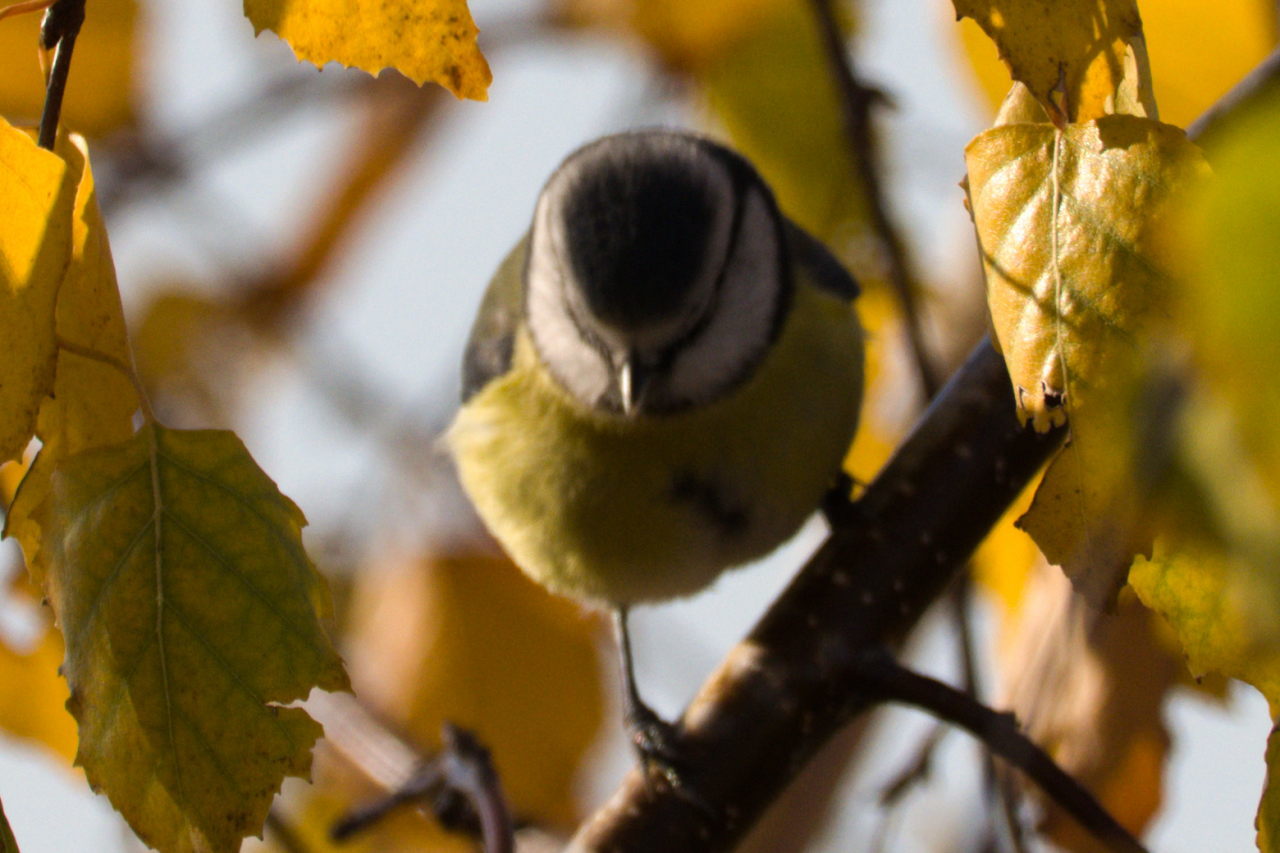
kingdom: Animalia
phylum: Chordata
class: Aves
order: Passeriformes
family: Paridae
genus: Cyanistes
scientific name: Cyanistes caeruleus
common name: Eurasian blue tit
